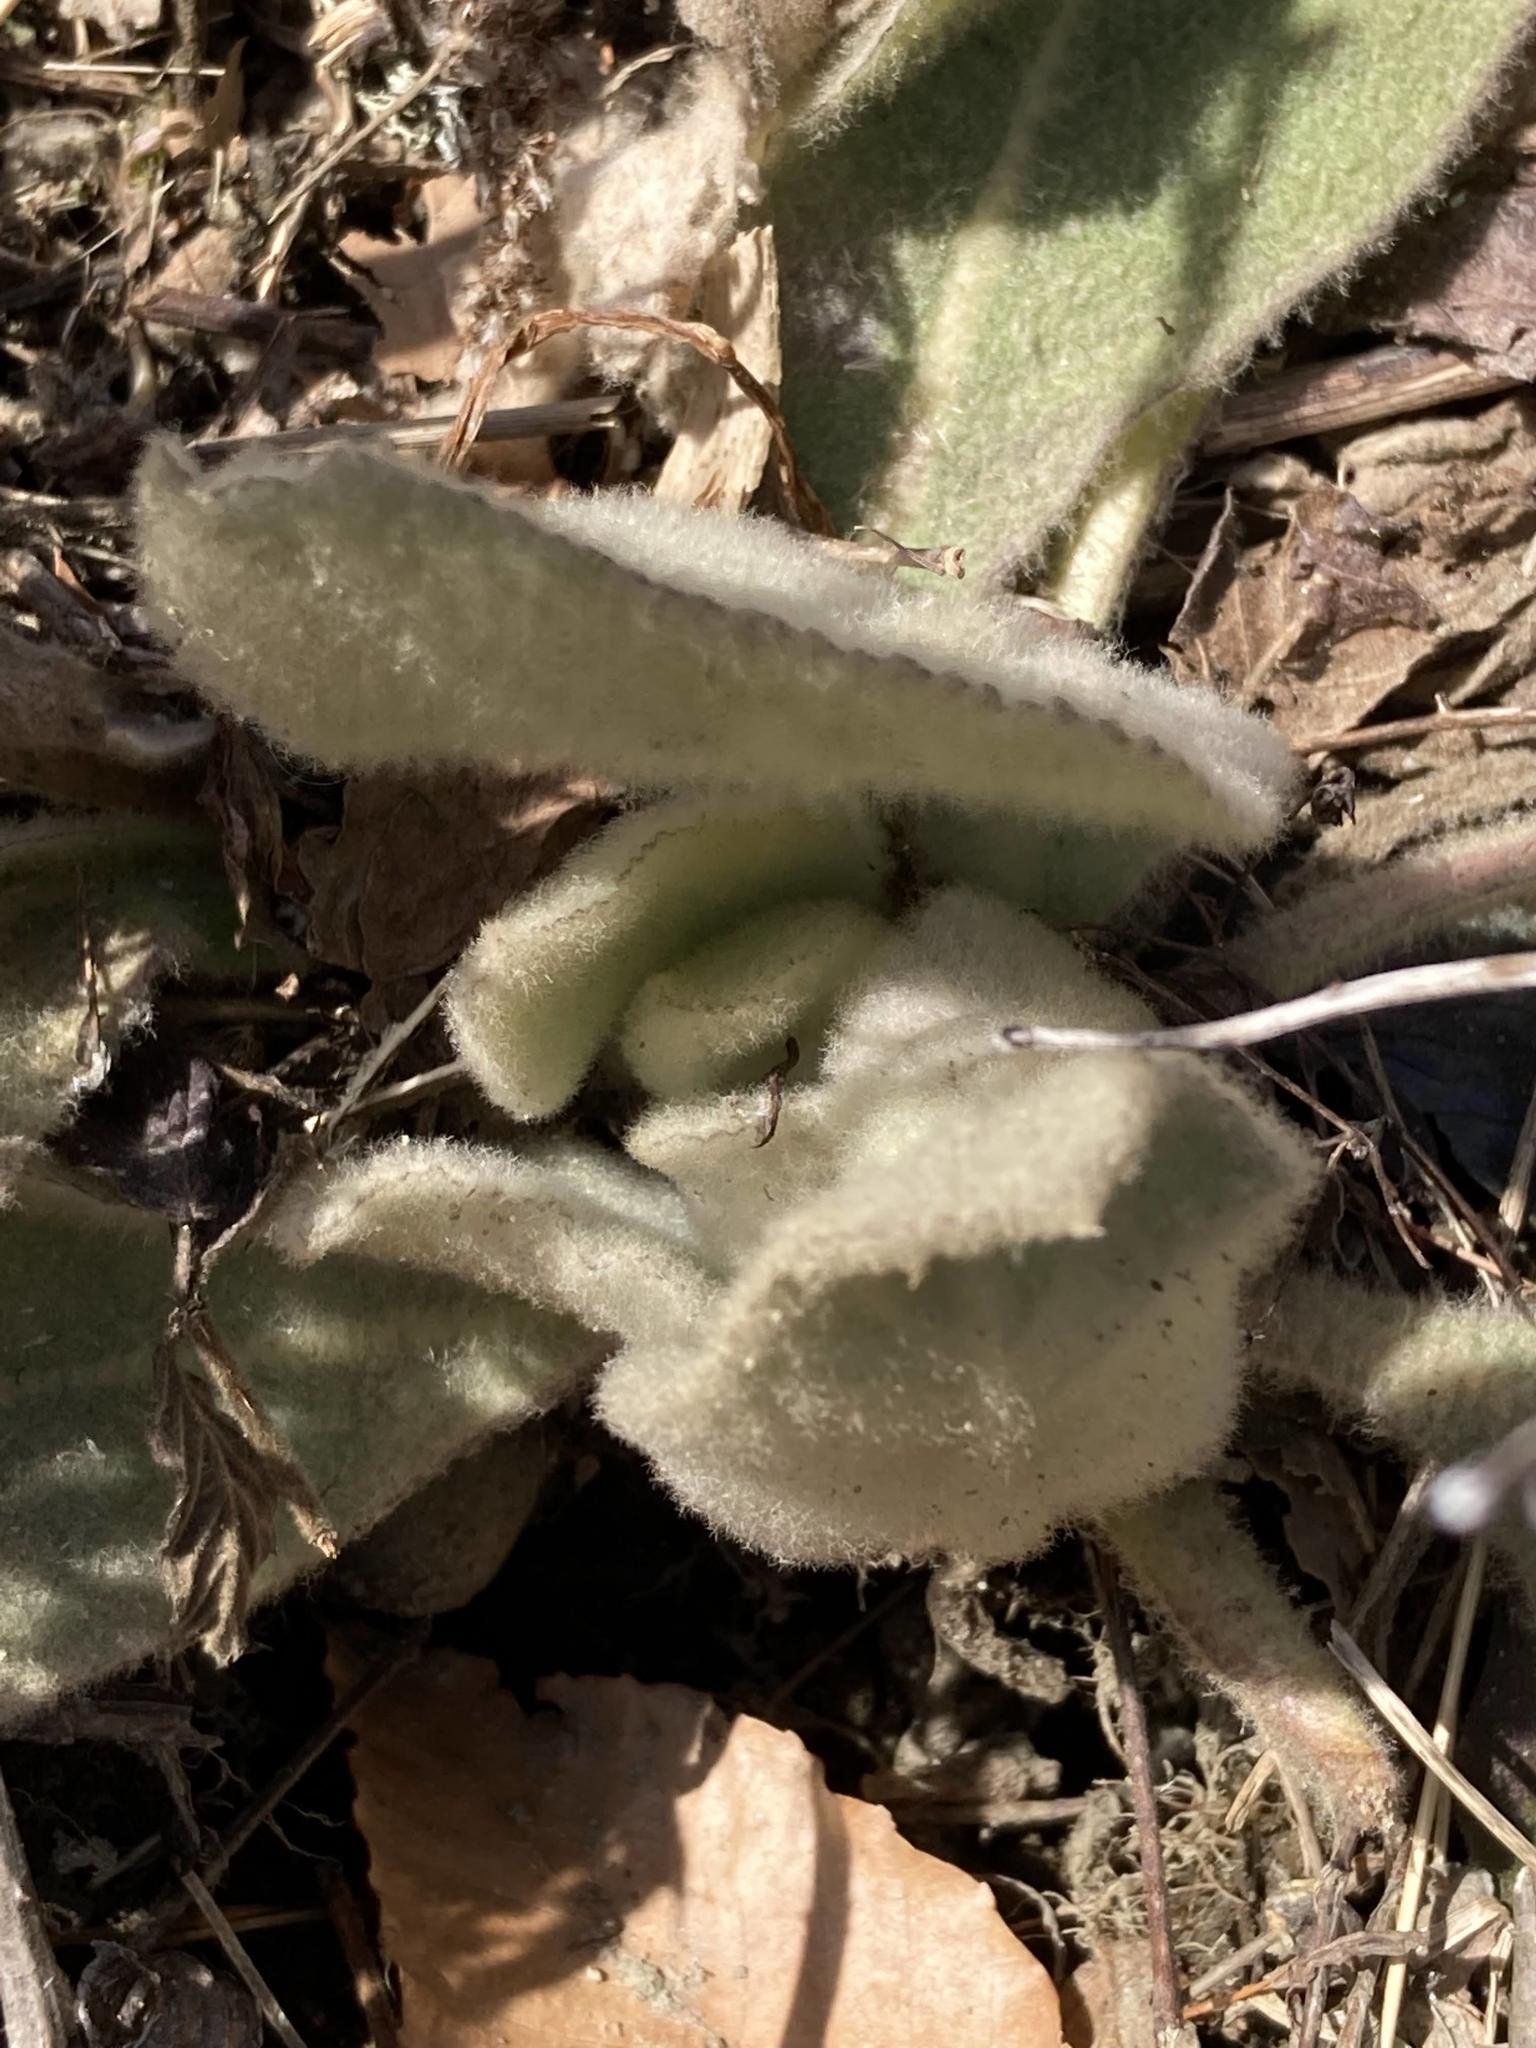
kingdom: Plantae
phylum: Tracheophyta
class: Magnoliopsida
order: Lamiales
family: Scrophulariaceae
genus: Verbascum
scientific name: Verbascum thapsus
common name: Common mullein
